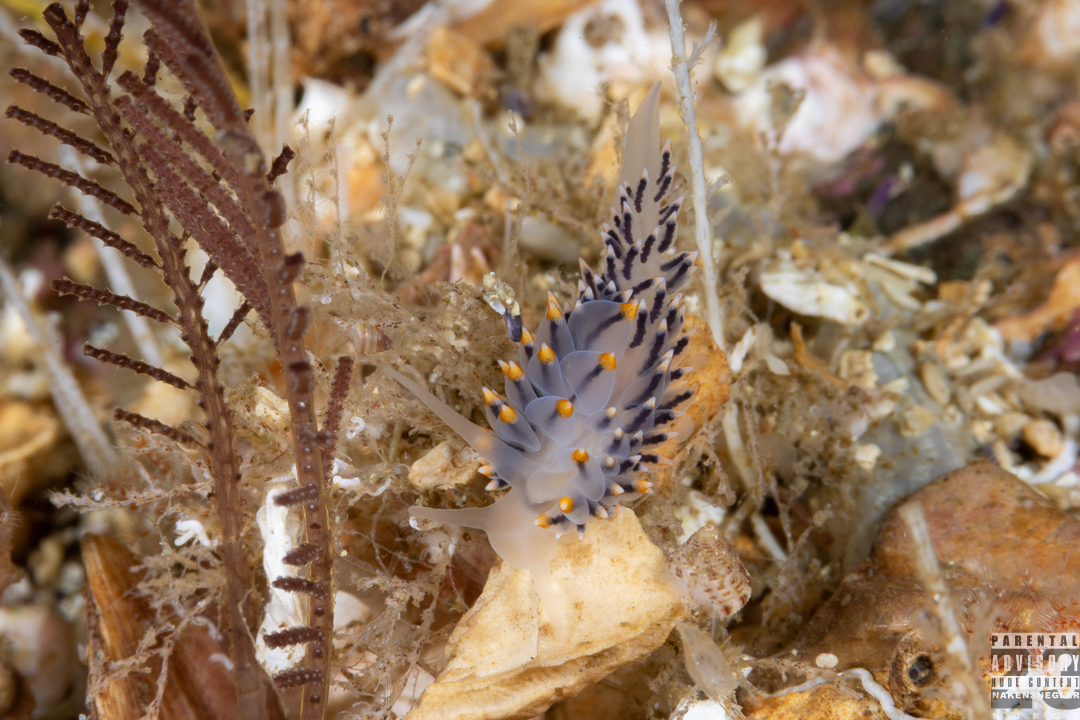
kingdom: Animalia
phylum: Mollusca
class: Gastropoda
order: Nudibranchia
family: Eubranchidae
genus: Eubranchus
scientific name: Eubranchus tricolor
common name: Painted balloon aeolis
